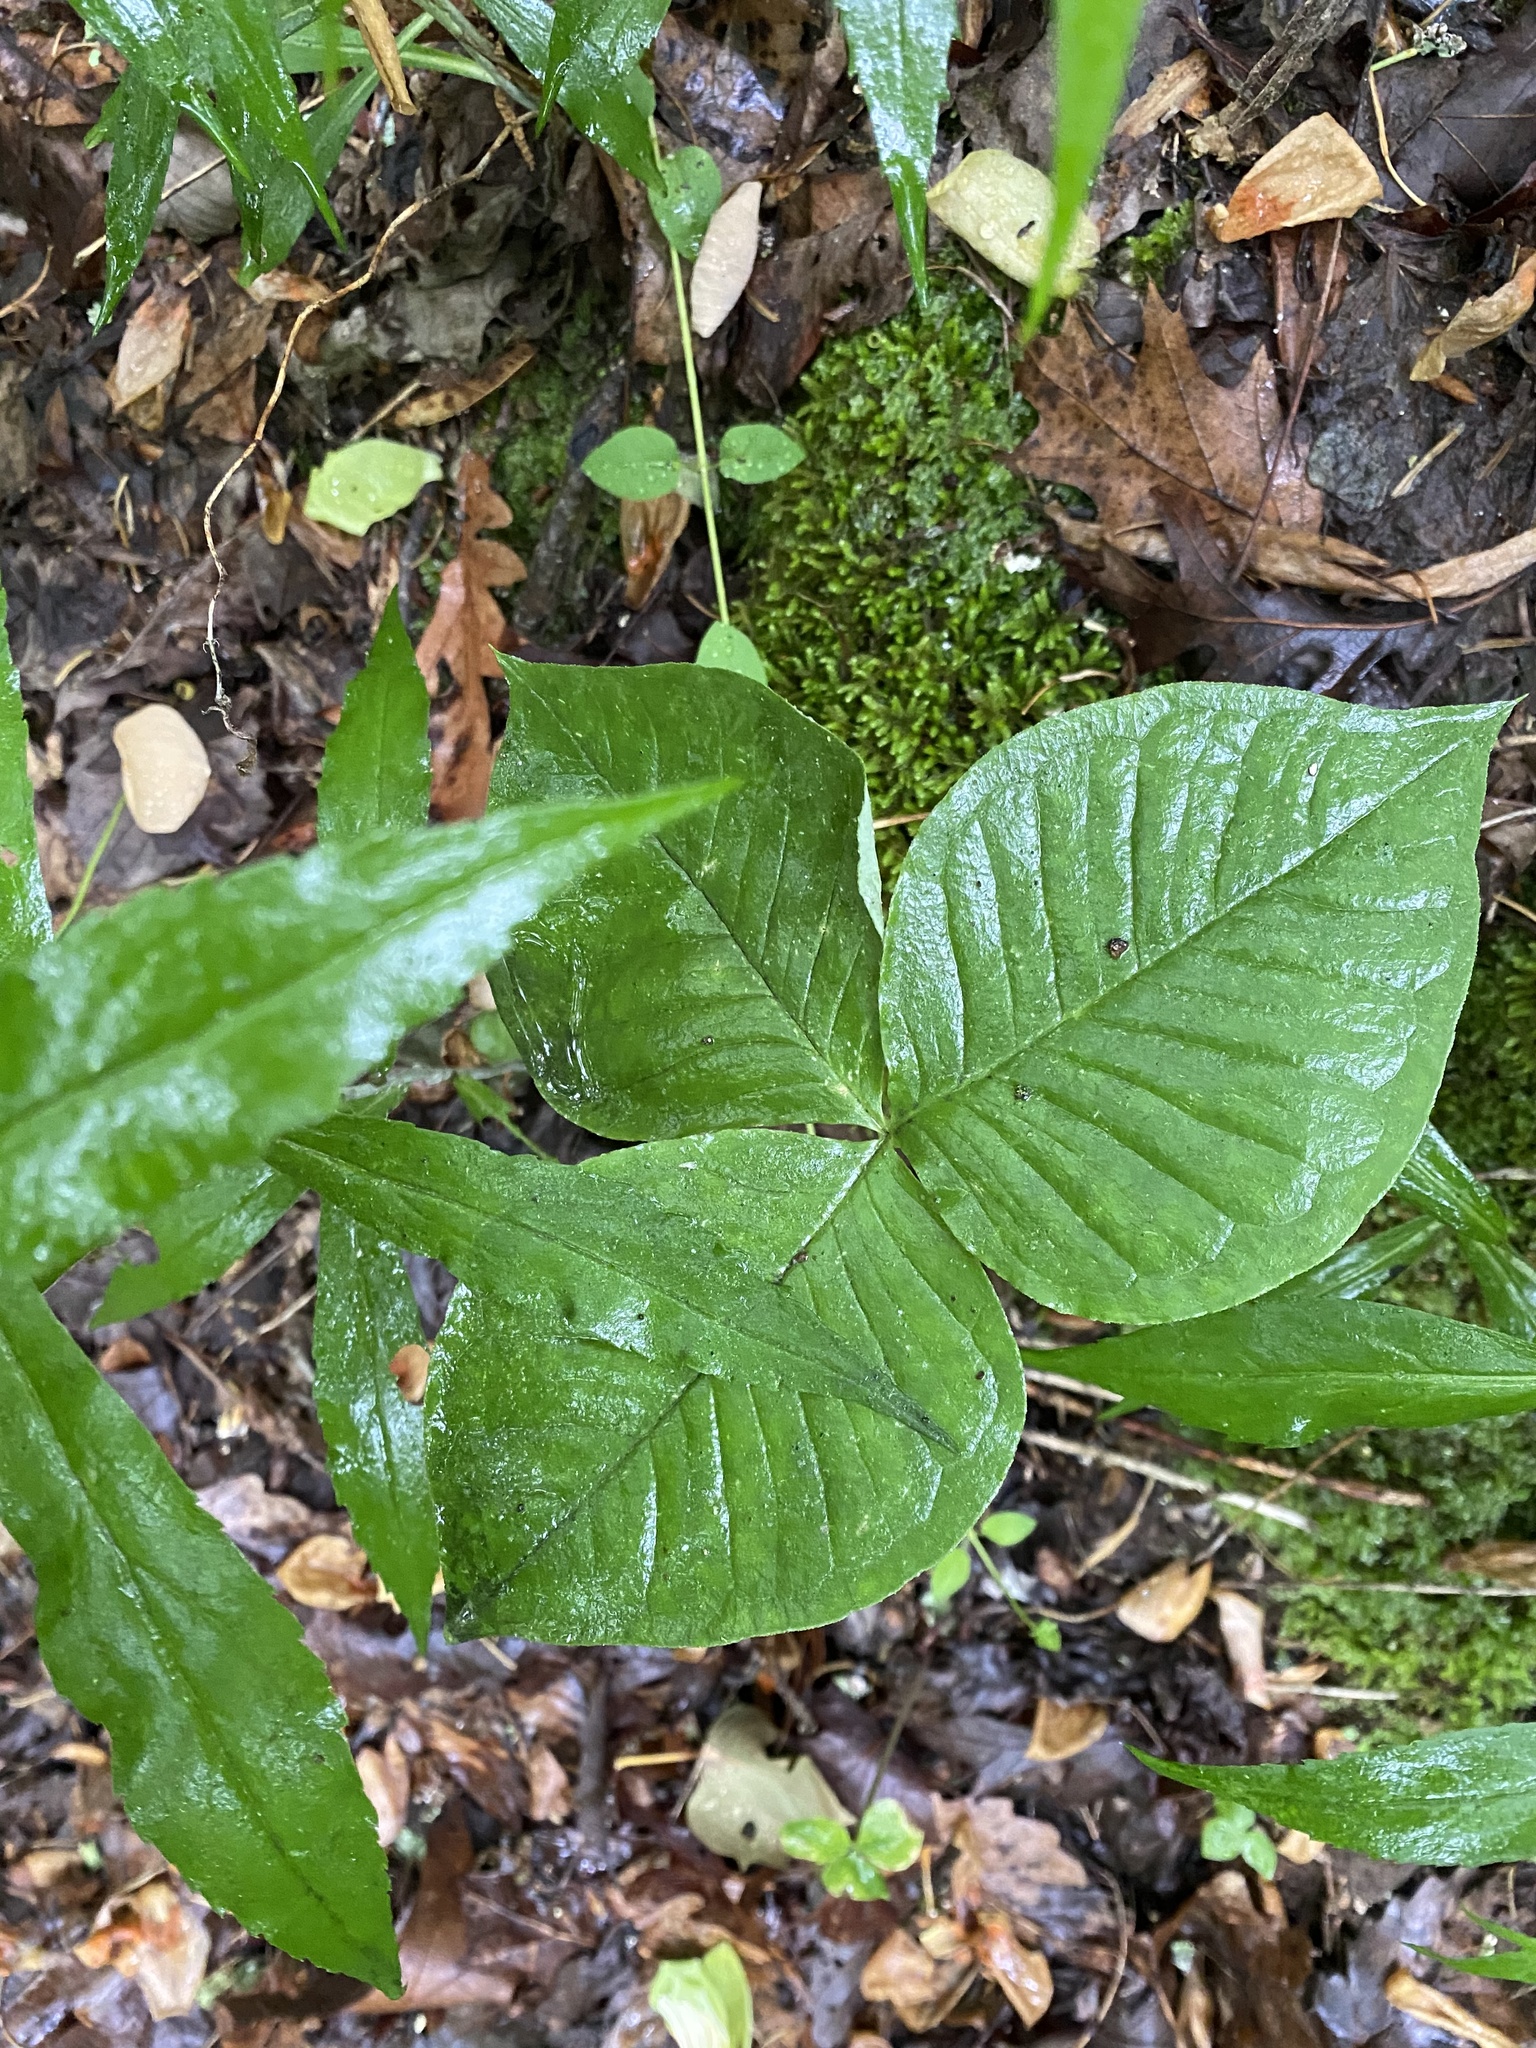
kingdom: Plantae
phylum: Tracheophyta
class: Liliopsida
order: Alismatales
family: Araceae
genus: Arisaema
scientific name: Arisaema triphyllum
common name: Jack-in-the-pulpit
